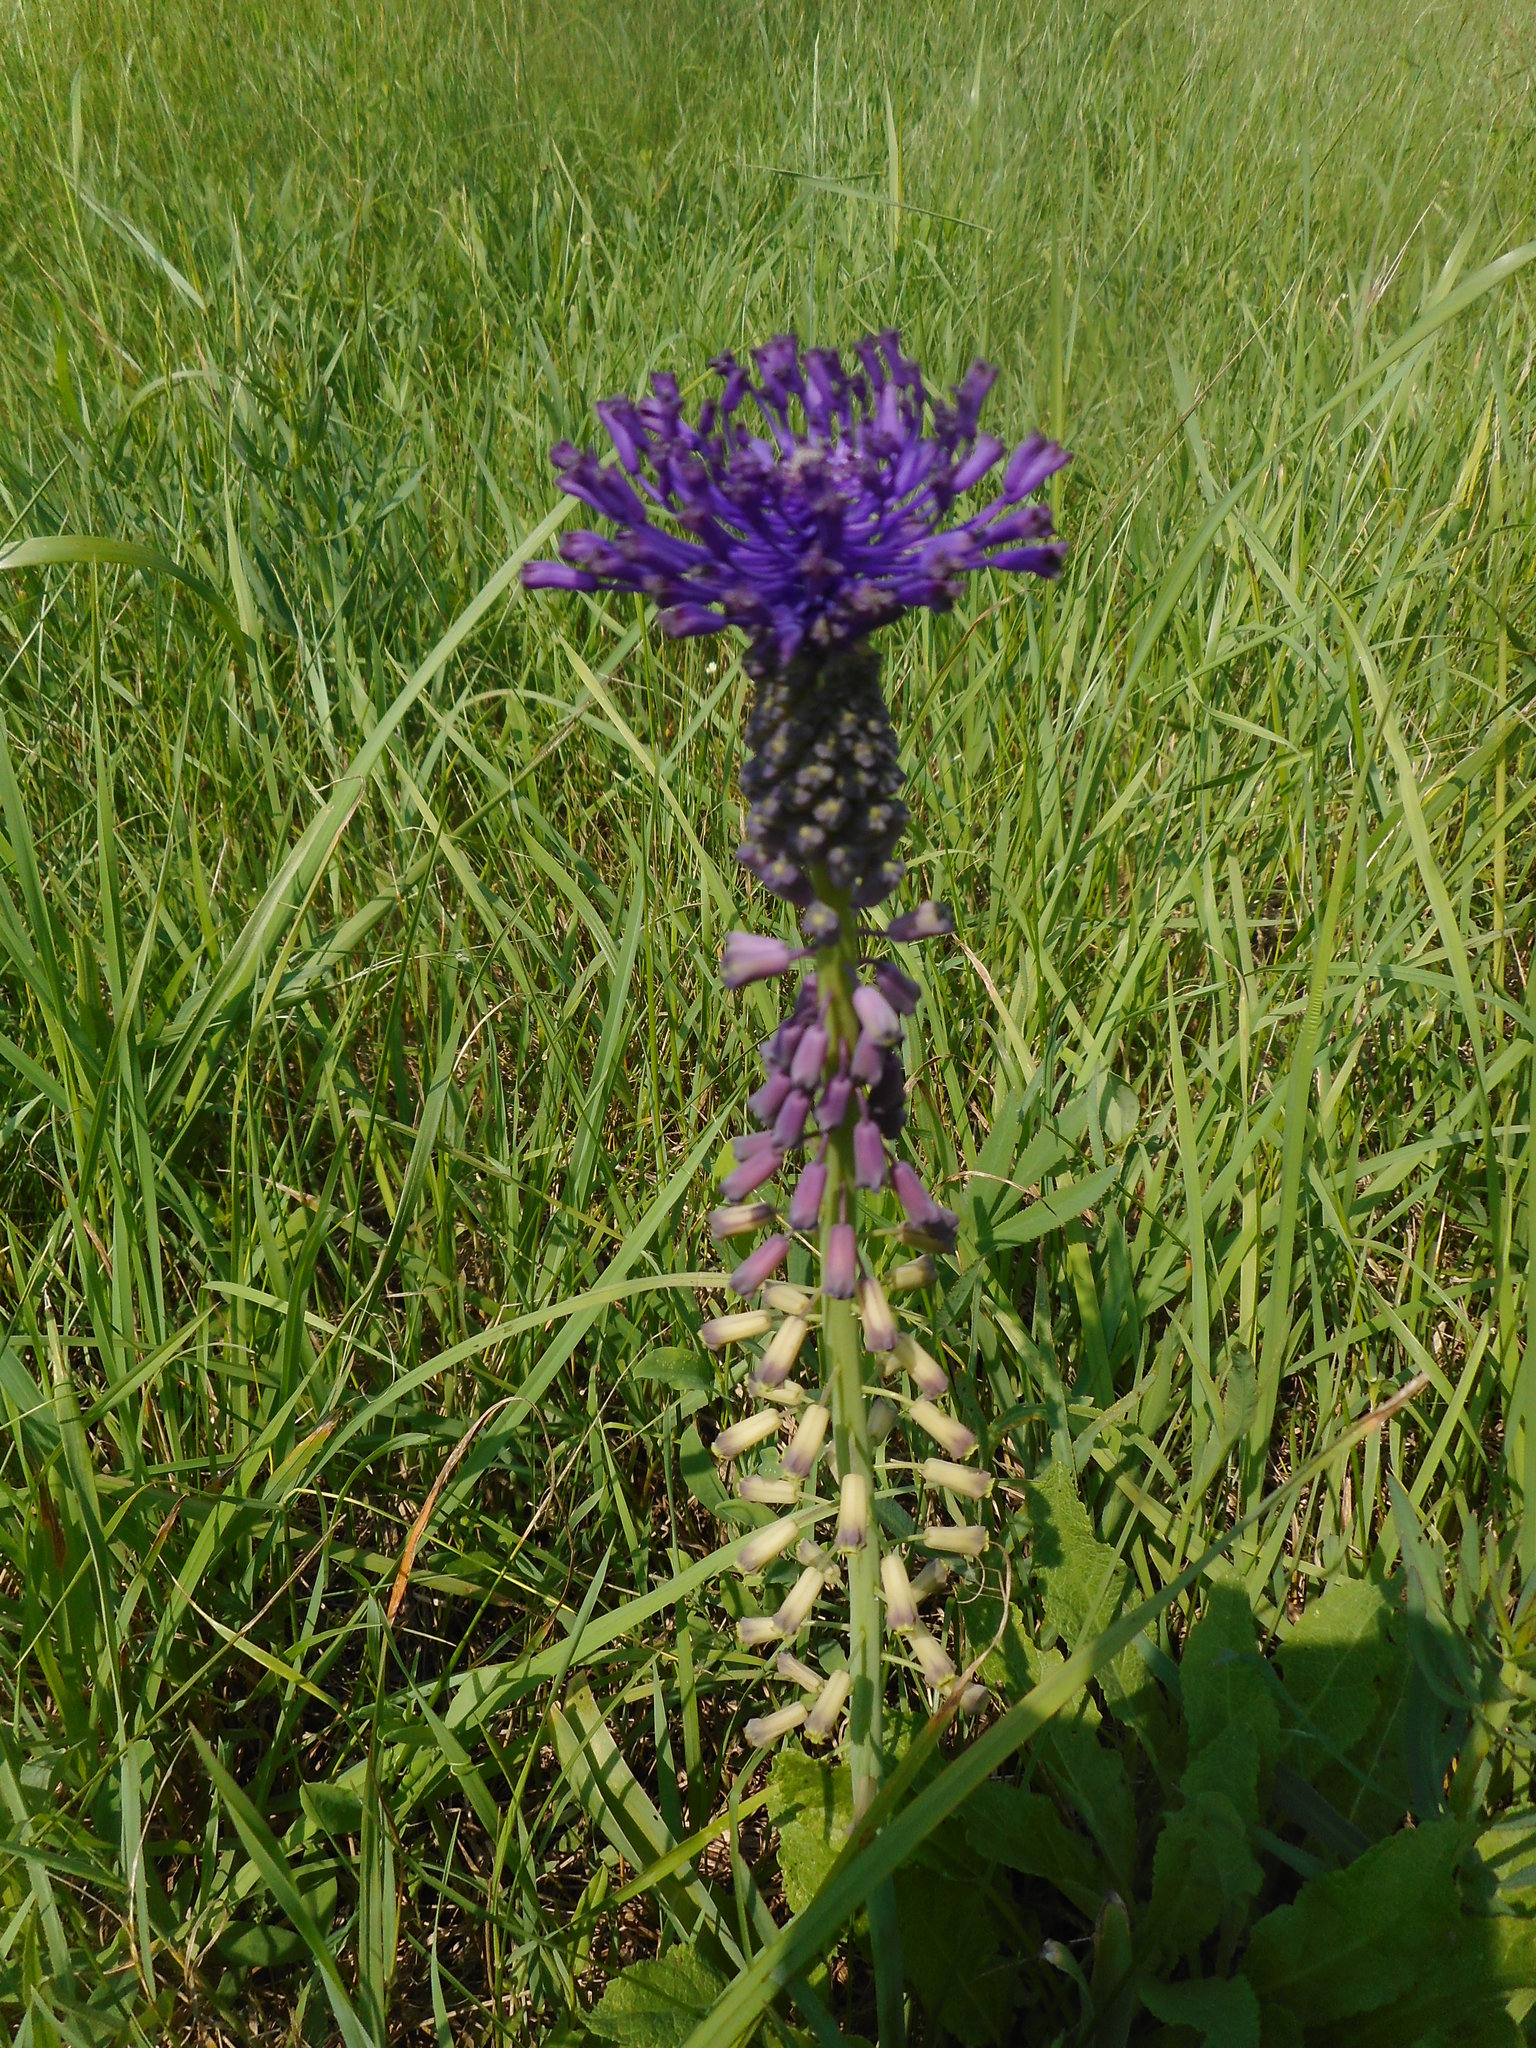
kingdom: Plantae
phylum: Tracheophyta
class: Liliopsida
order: Asparagales
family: Asparagaceae
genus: Muscari
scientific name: Muscari comosum
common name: Tassel hyacinth
